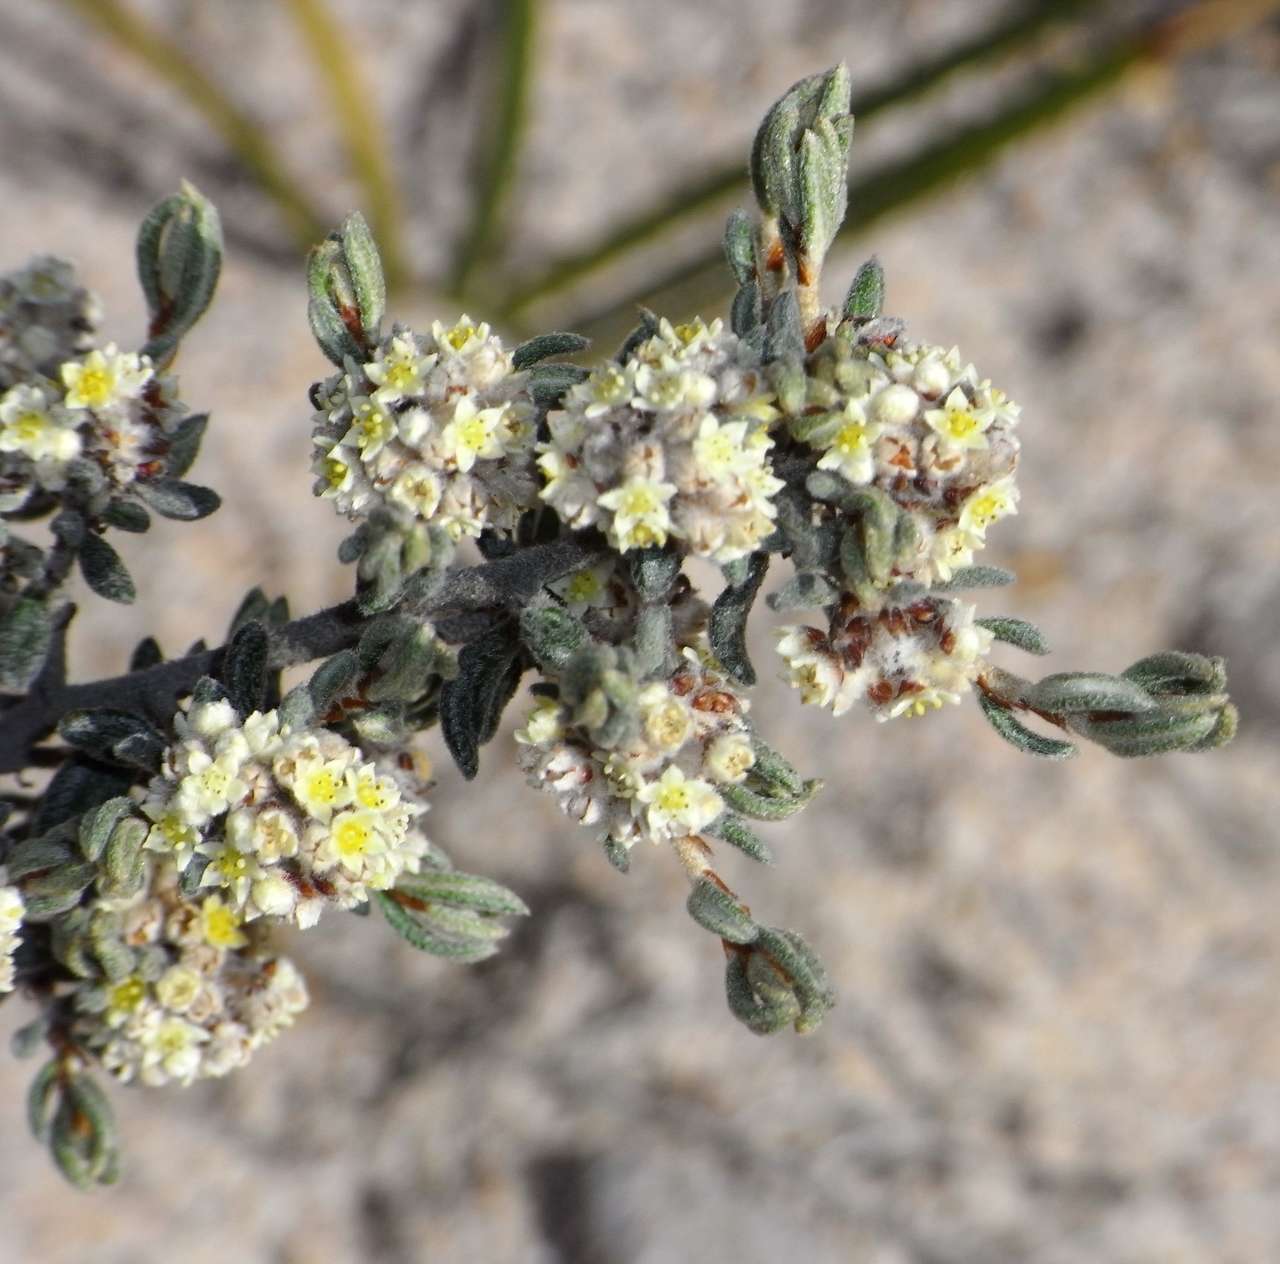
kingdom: Plantae
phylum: Tracheophyta
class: Magnoliopsida
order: Rosales
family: Rhamnaceae
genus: Spyridium
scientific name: Spyridium subochreatum
